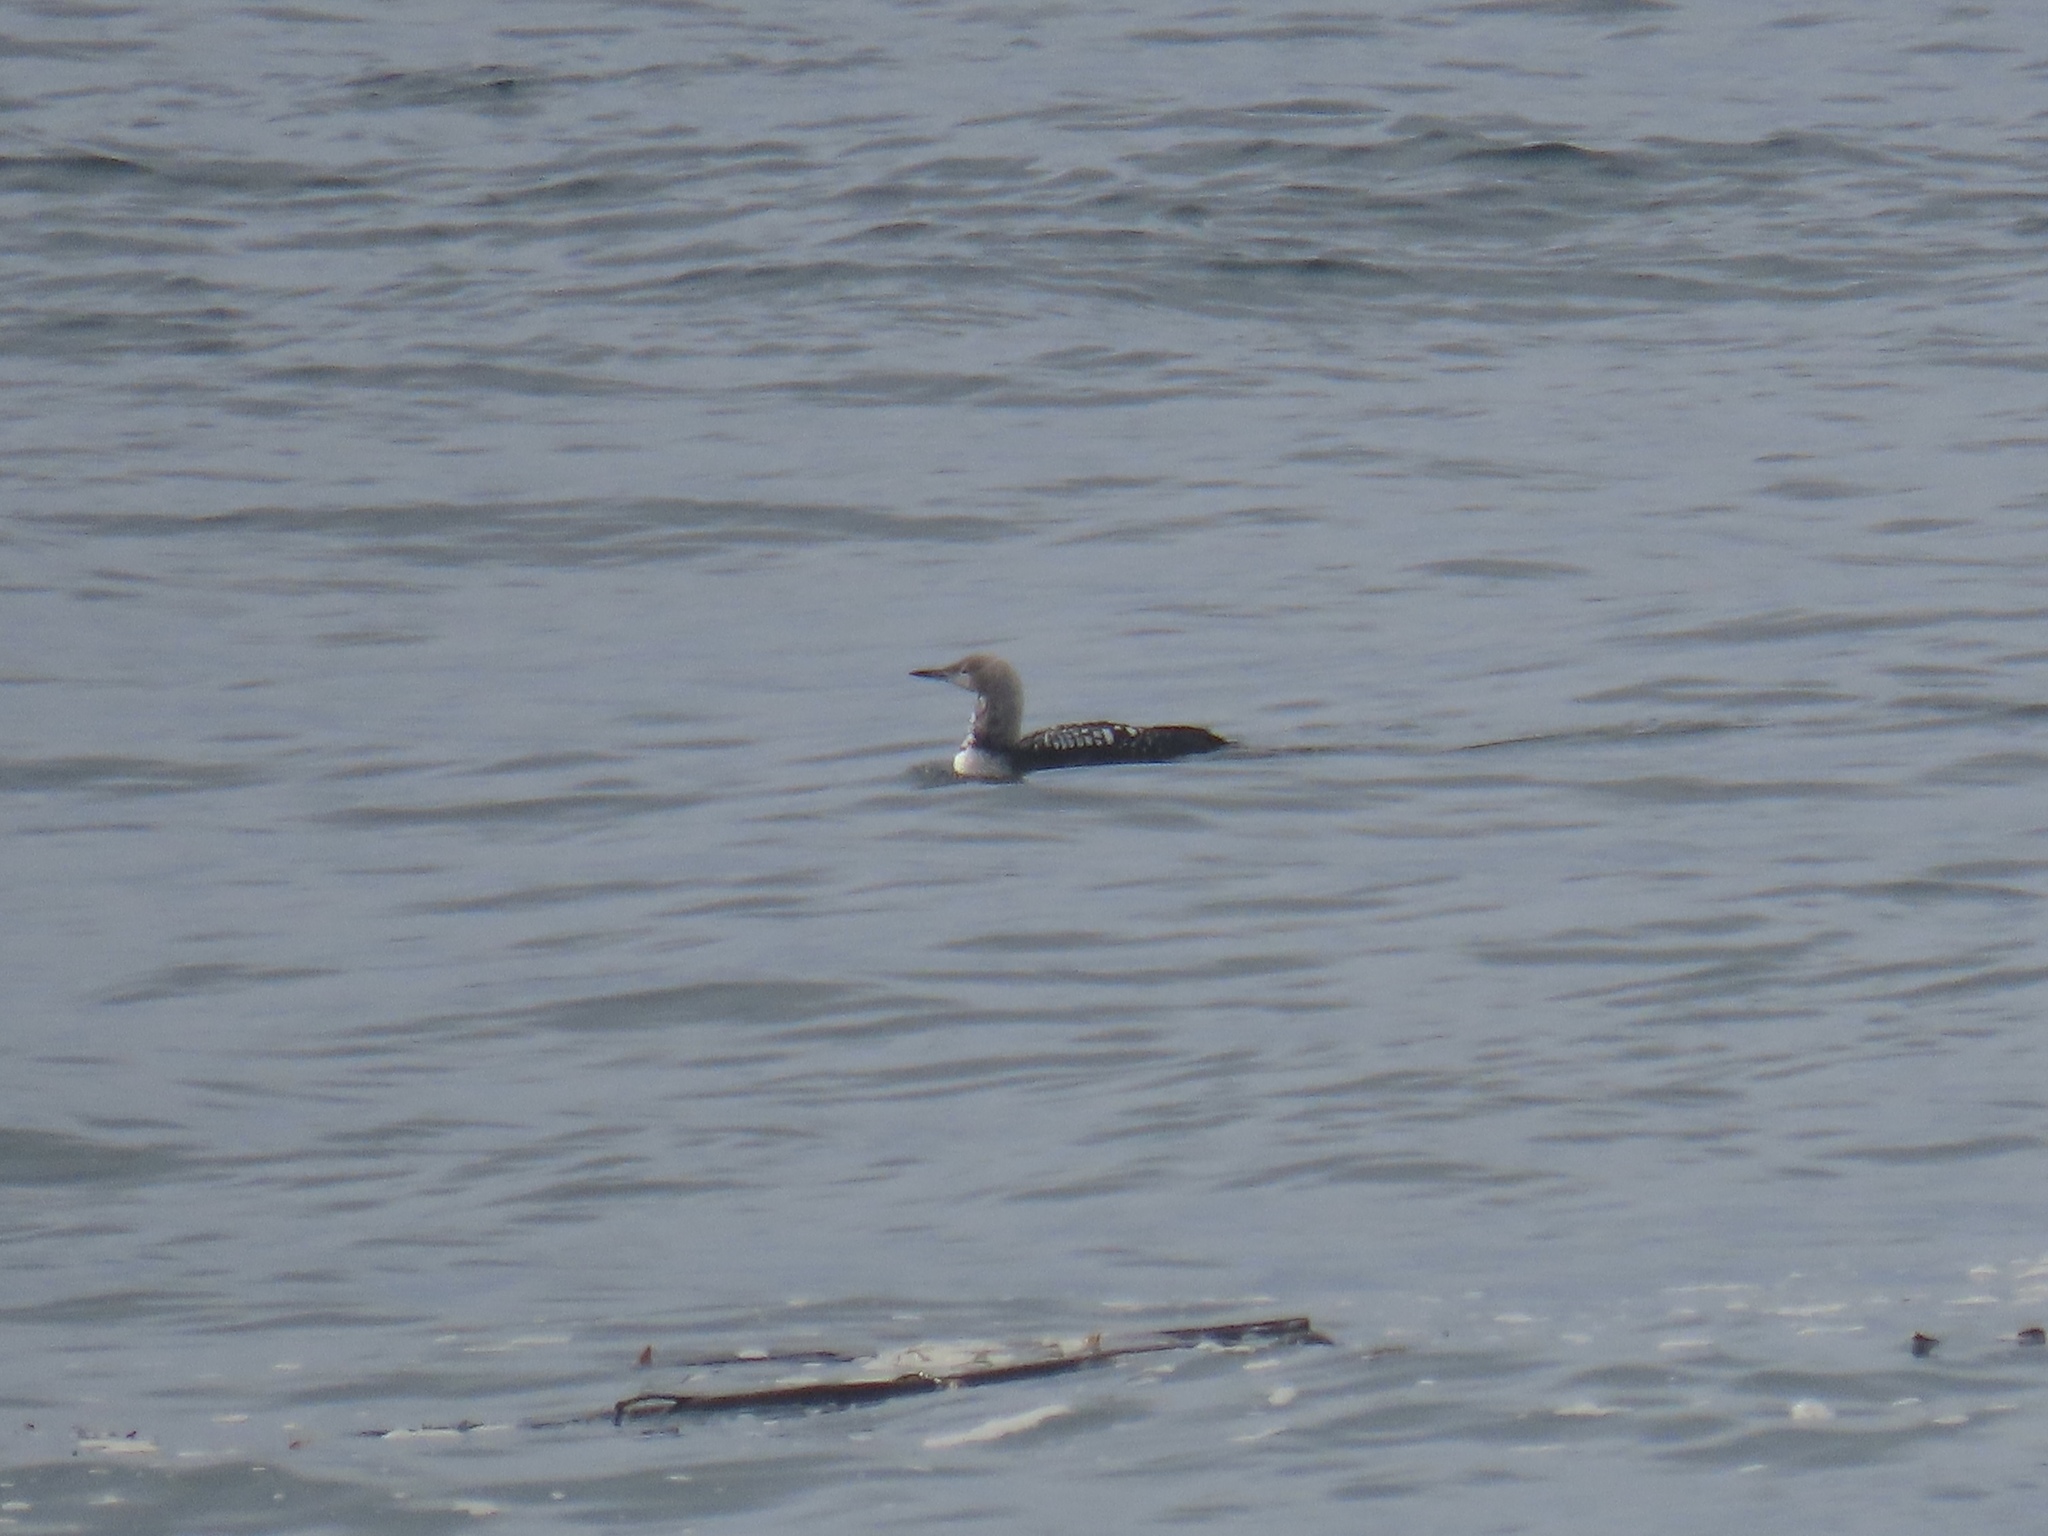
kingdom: Animalia
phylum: Chordata
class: Aves
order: Gaviiformes
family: Gaviidae
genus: Gavia
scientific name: Gavia pacifica
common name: Pacific loon
